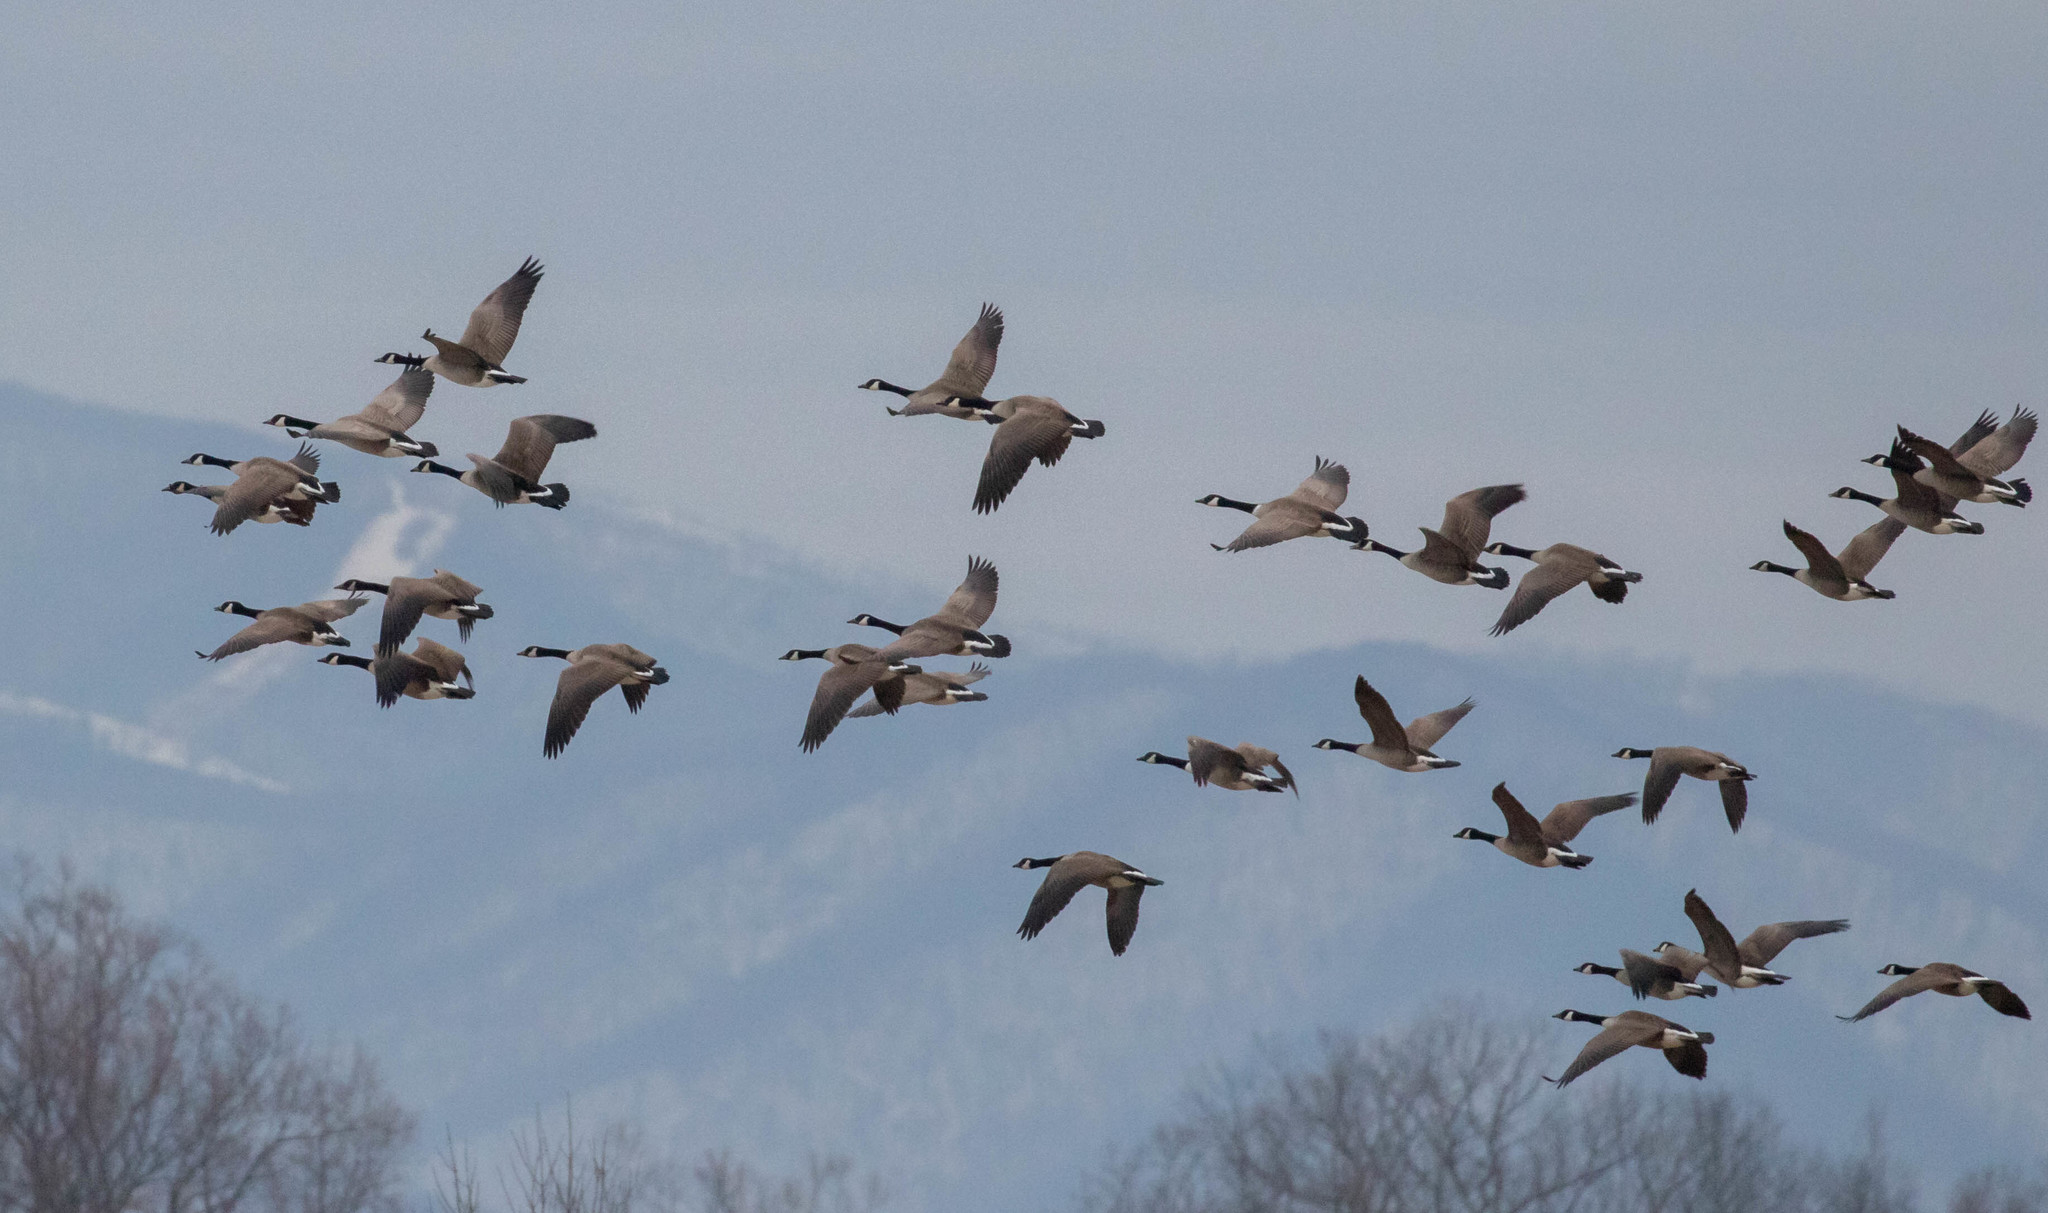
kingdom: Animalia
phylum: Chordata
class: Aves
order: Anseriformes
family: Anatidae
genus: Branta
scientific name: Branta canadensis
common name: Canada goose
